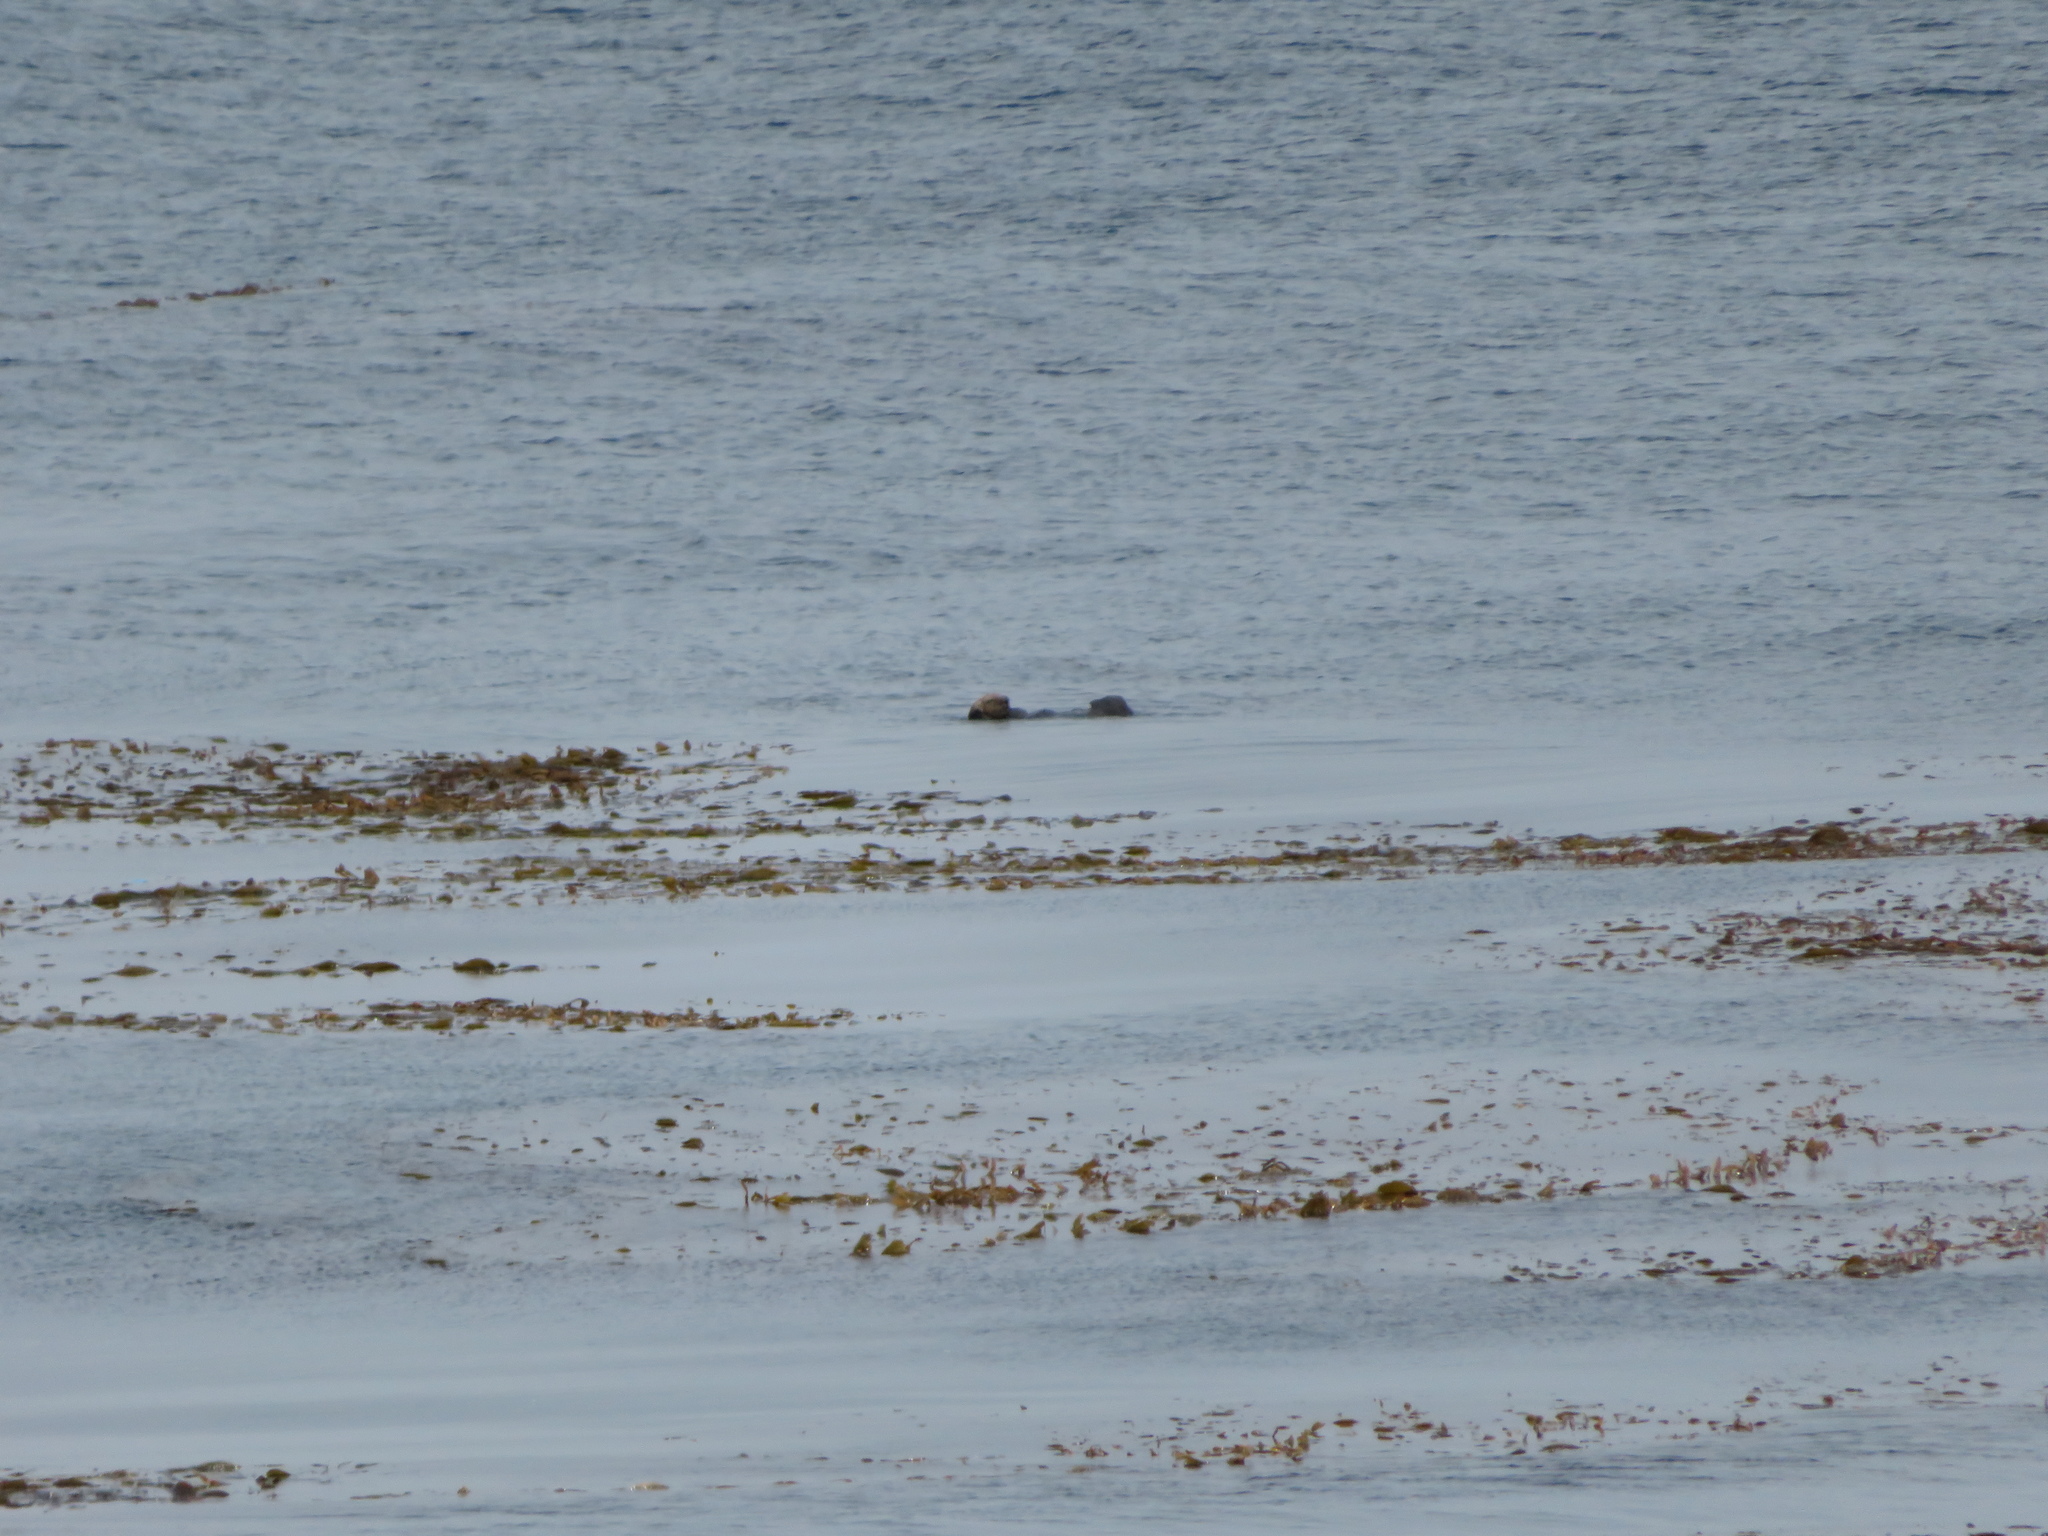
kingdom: Animalia
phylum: Chordata
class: Mammalia
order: Carnivora
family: Mustelidae
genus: Enhydra
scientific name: Enhydra lutris
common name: Sea otter
